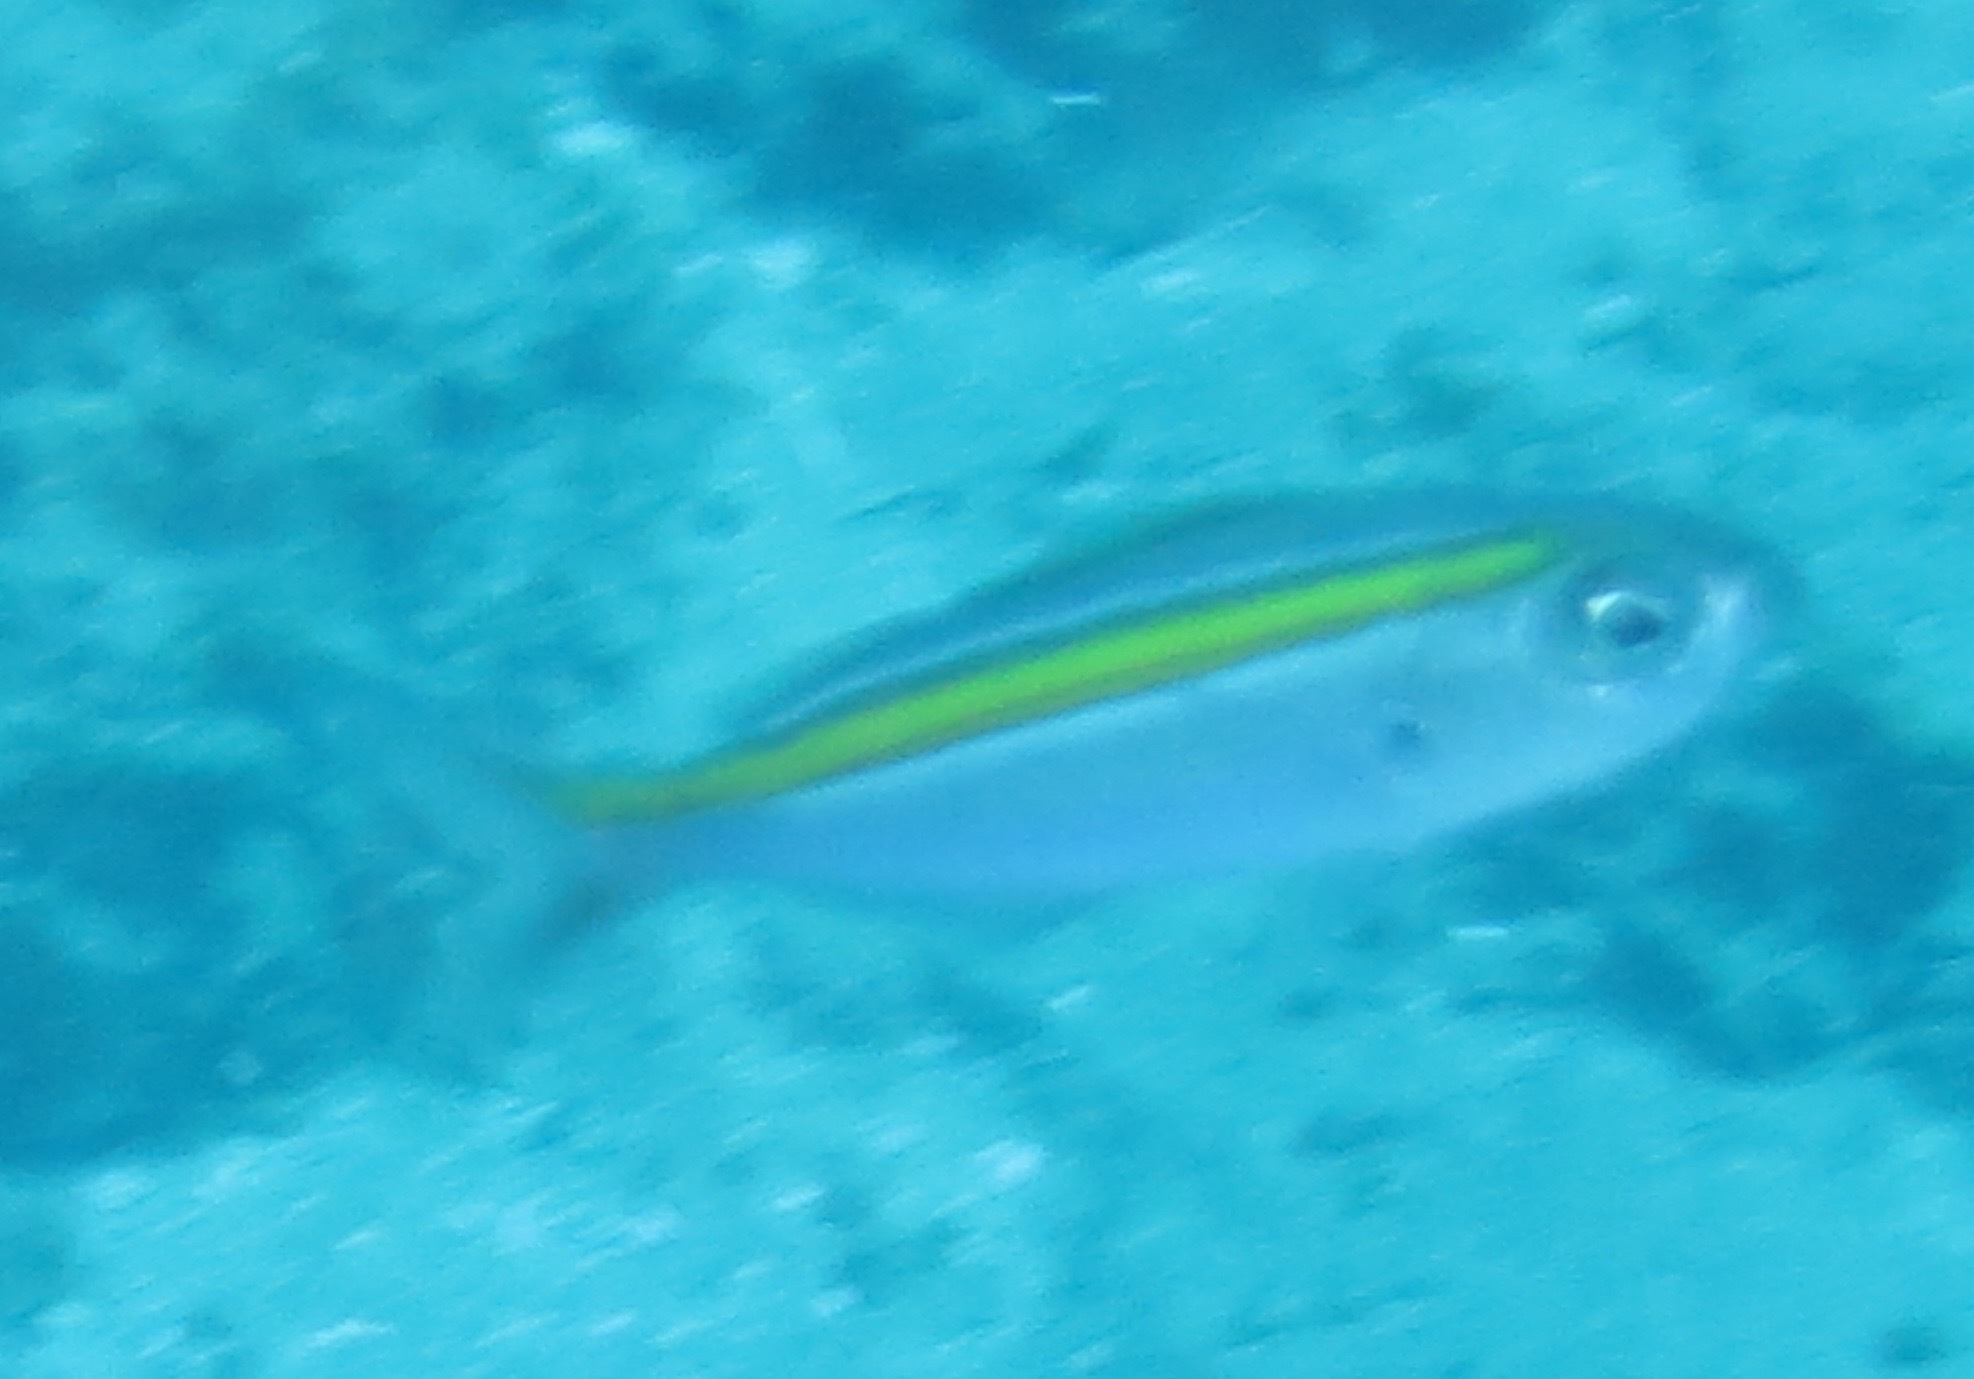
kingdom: Animalia
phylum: Chordata
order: Perciformes
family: Caesionidae
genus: Caesio
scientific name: Caesio xanthalytos
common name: Goldsash fusilier
